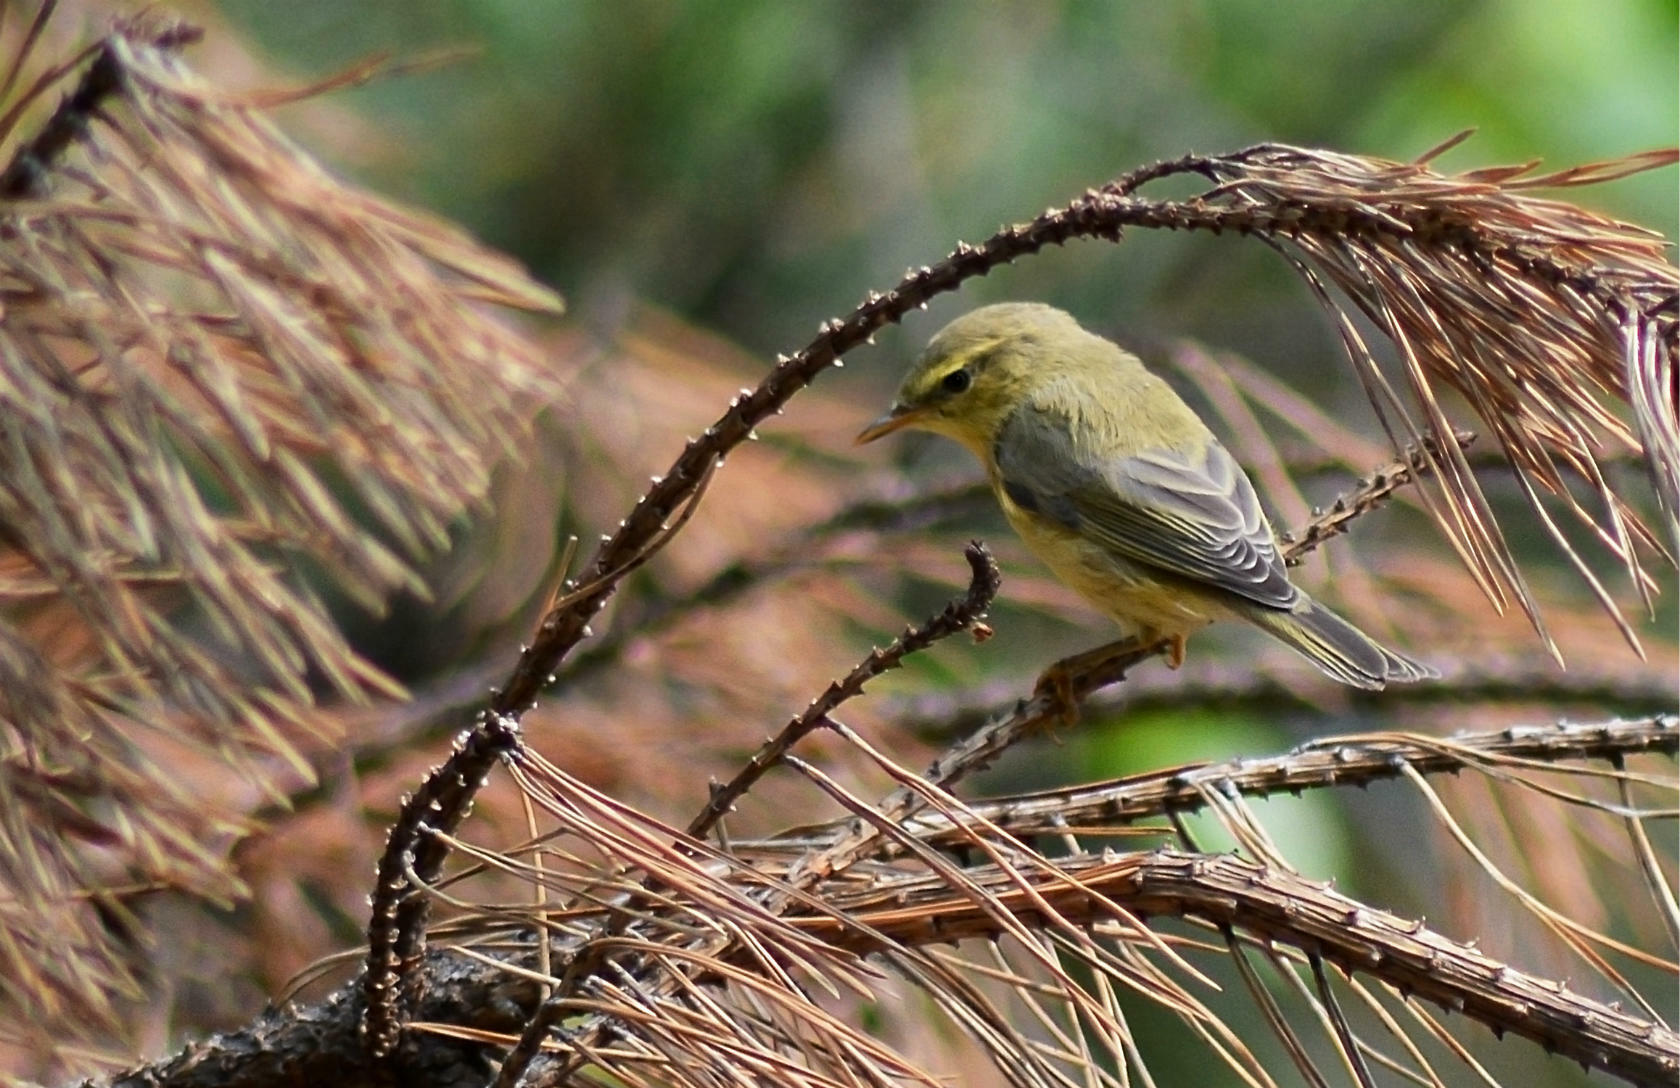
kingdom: Animalia
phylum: Chordata
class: Aves
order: Passeriformes
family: Phylloscopidae
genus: Phylloscopus
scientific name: Phylloscopus trochilus
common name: Willow warbler
